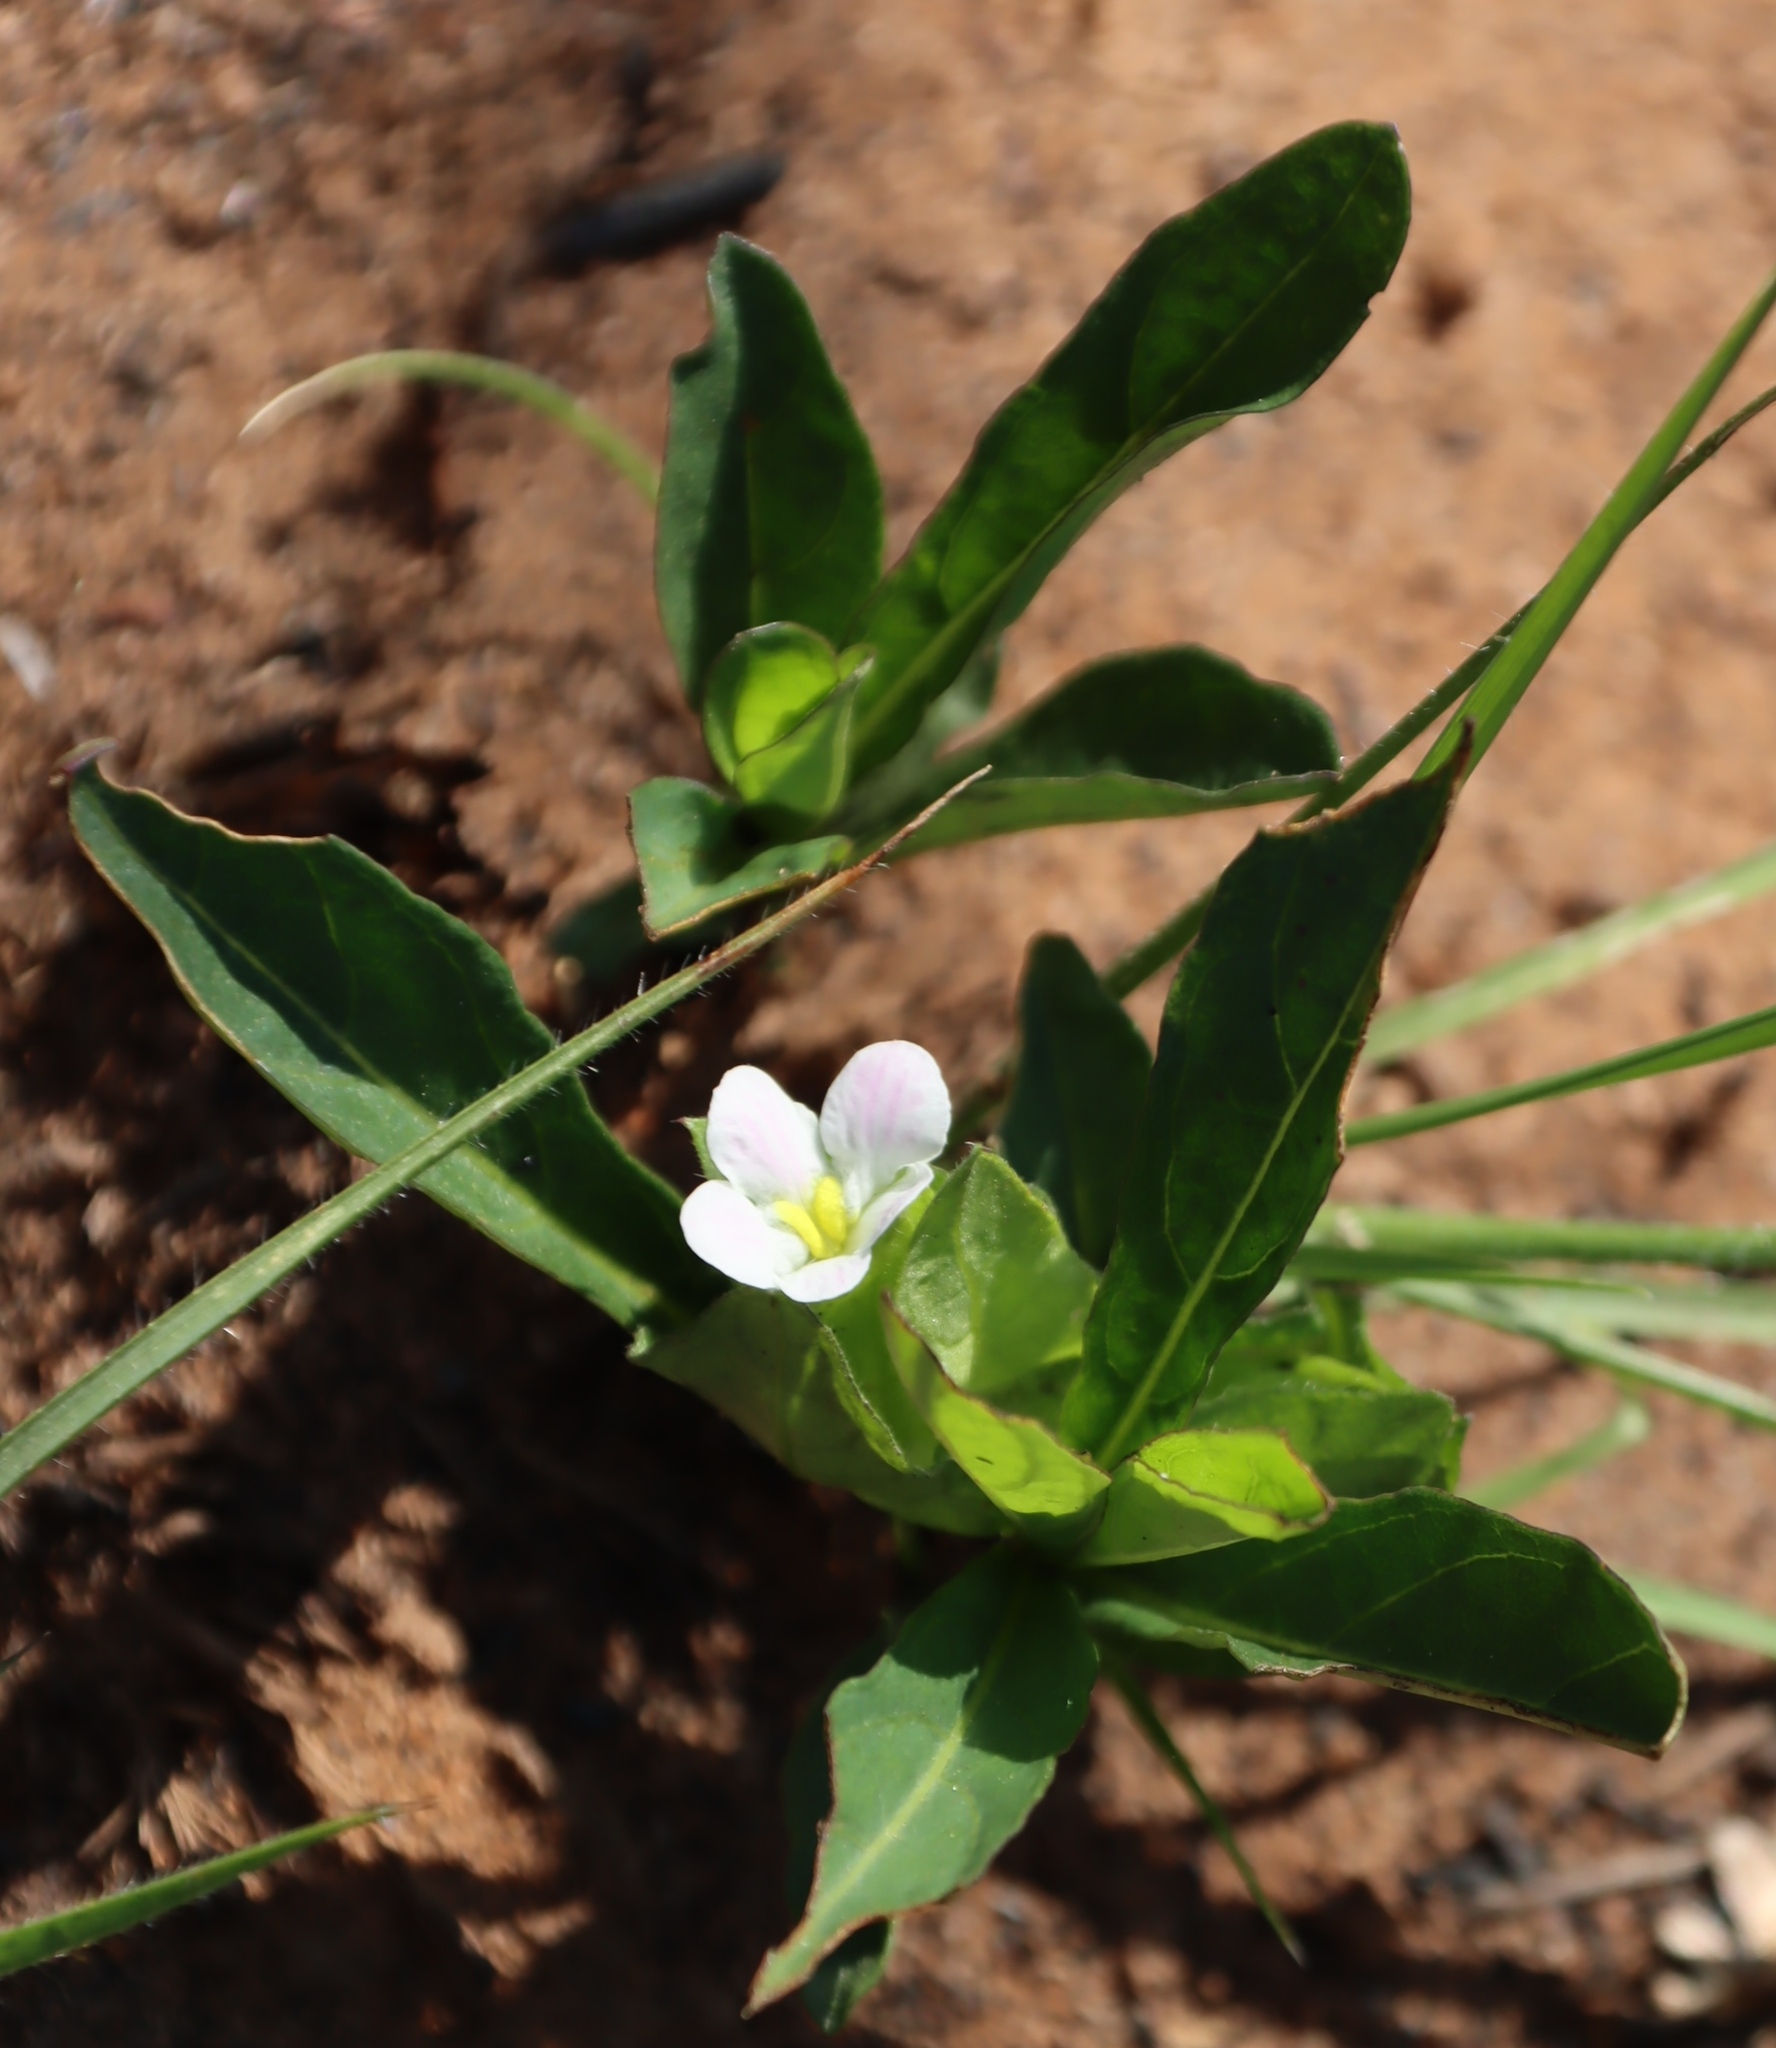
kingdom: Plantae
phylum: Tracheophyta
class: Magnoliopsida
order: Lamiales
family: Acanthaceae
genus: Crabbea
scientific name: Crabbea nana
